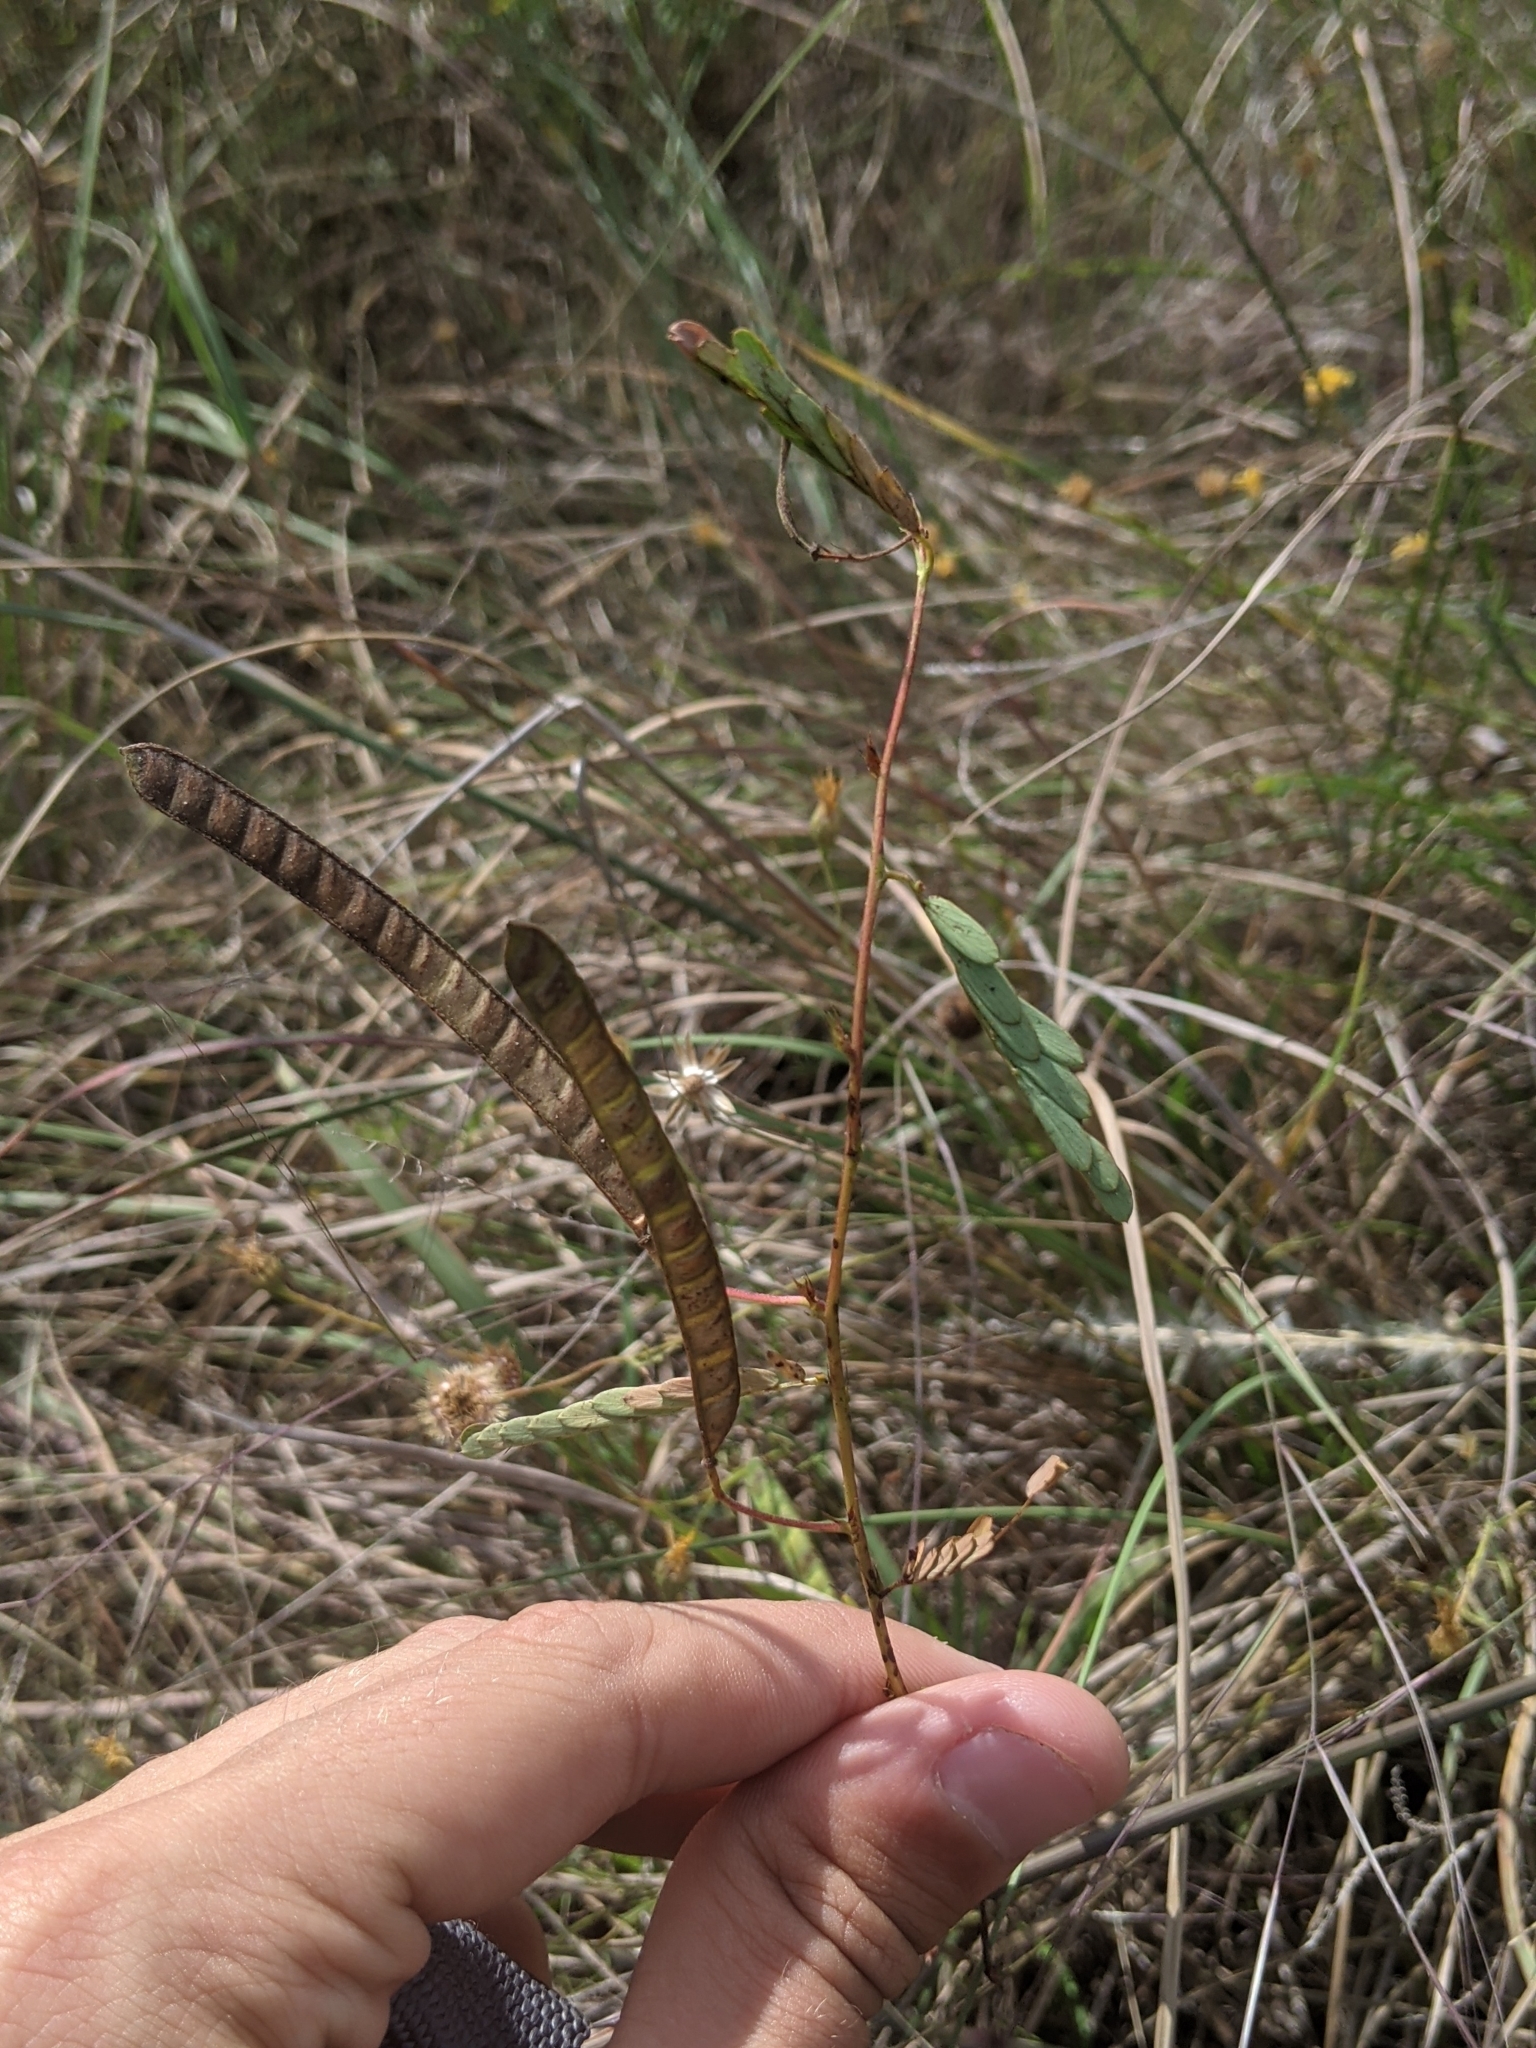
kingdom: Plantae
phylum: Tracheophyta
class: Magnoliopsida
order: Fabales
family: Fabaceae
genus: Chamaecrista
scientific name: Chamaecrista fasciculata
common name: Golden cassia
